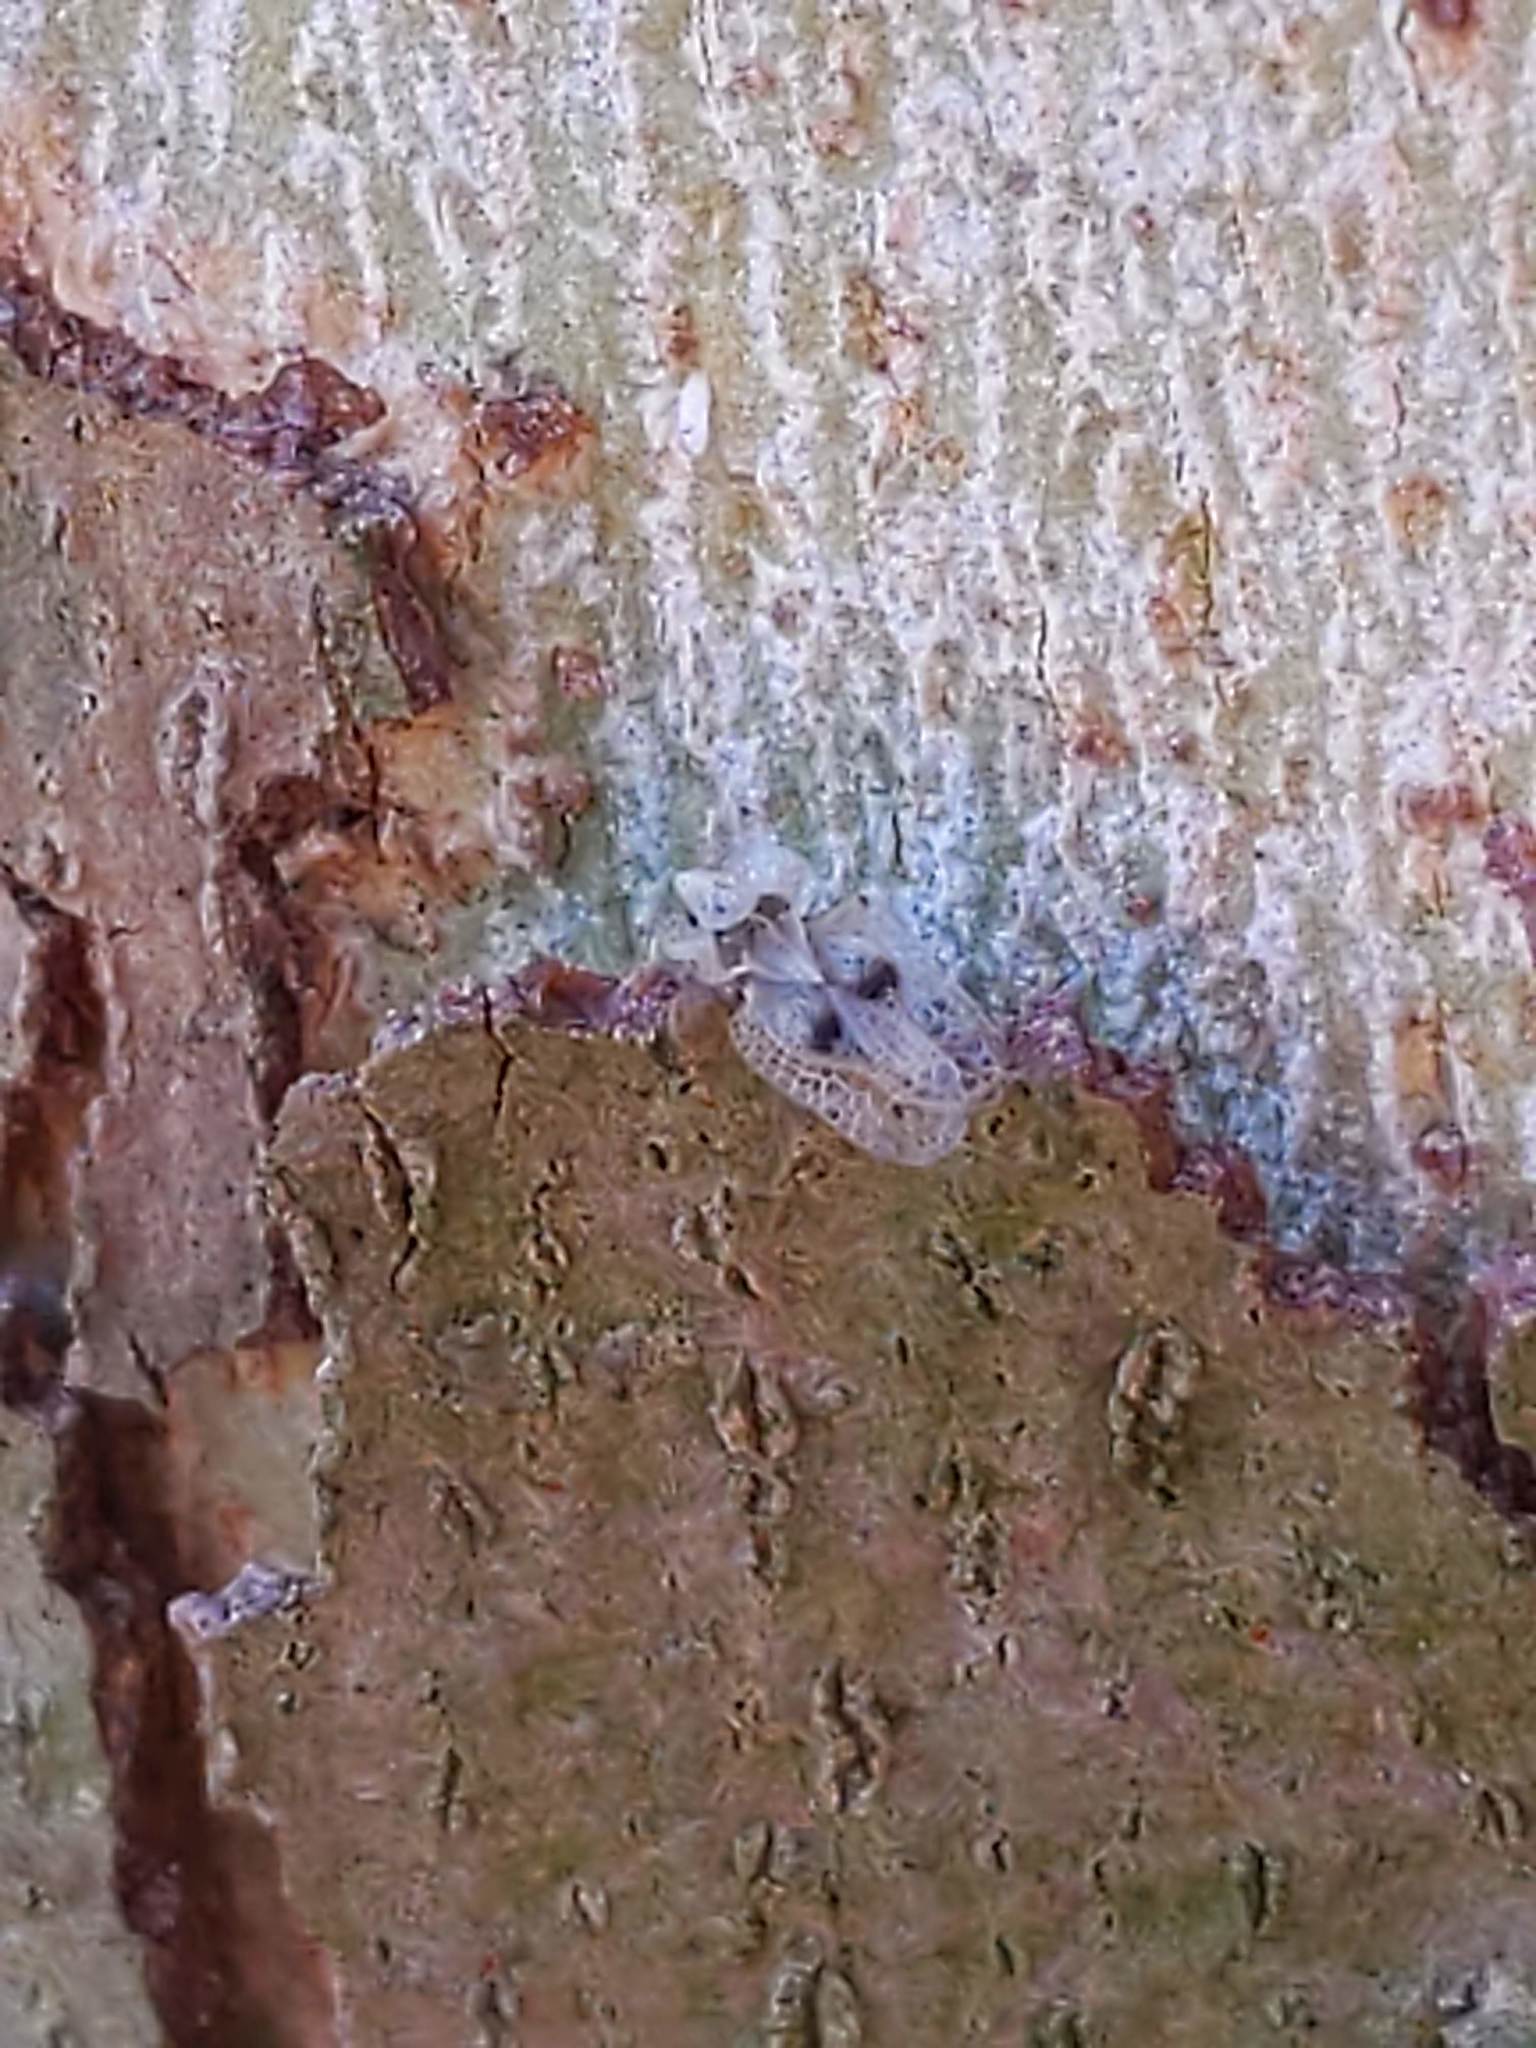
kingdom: Animalia
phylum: Arthropoda
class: Insecta
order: Hemiptera
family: Tingidae
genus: Corythucha
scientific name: Corythucha ciliata
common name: Sycamore lace bug
